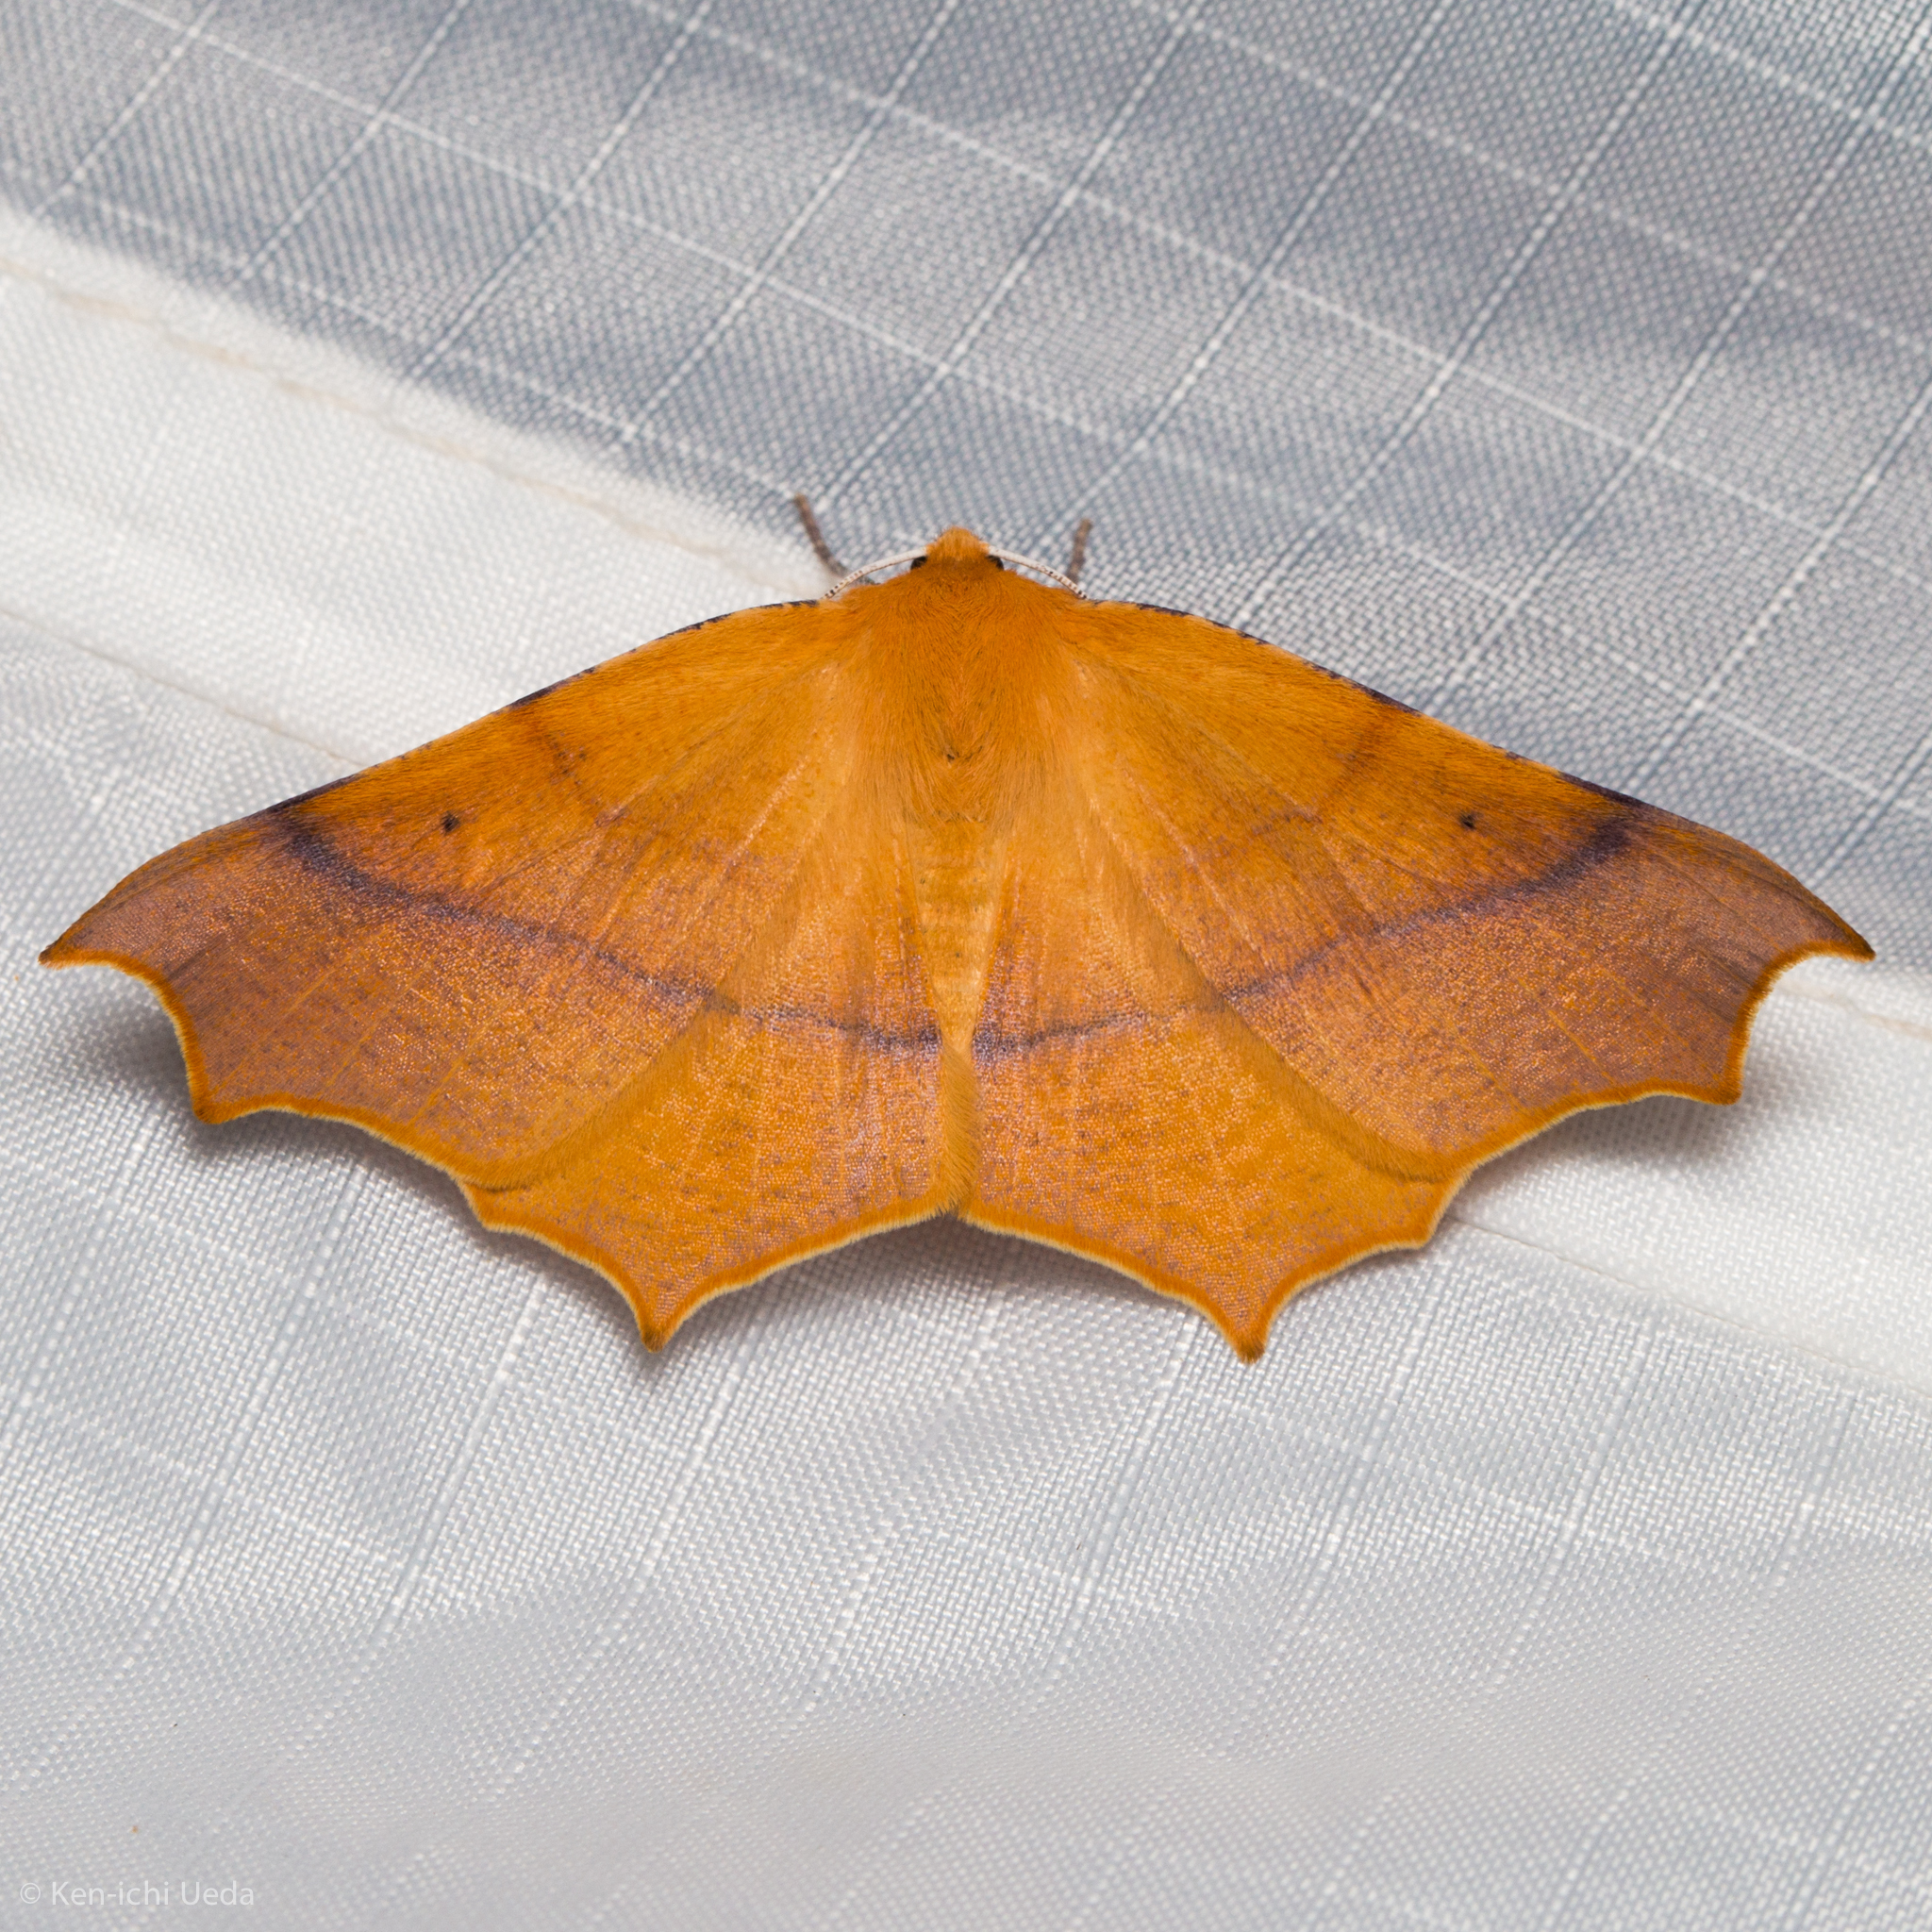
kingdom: Animalia
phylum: Arthropoda
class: Insecta
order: Lepidoptera
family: Geometridae
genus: Tetracis
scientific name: Tetracis cervinaria
